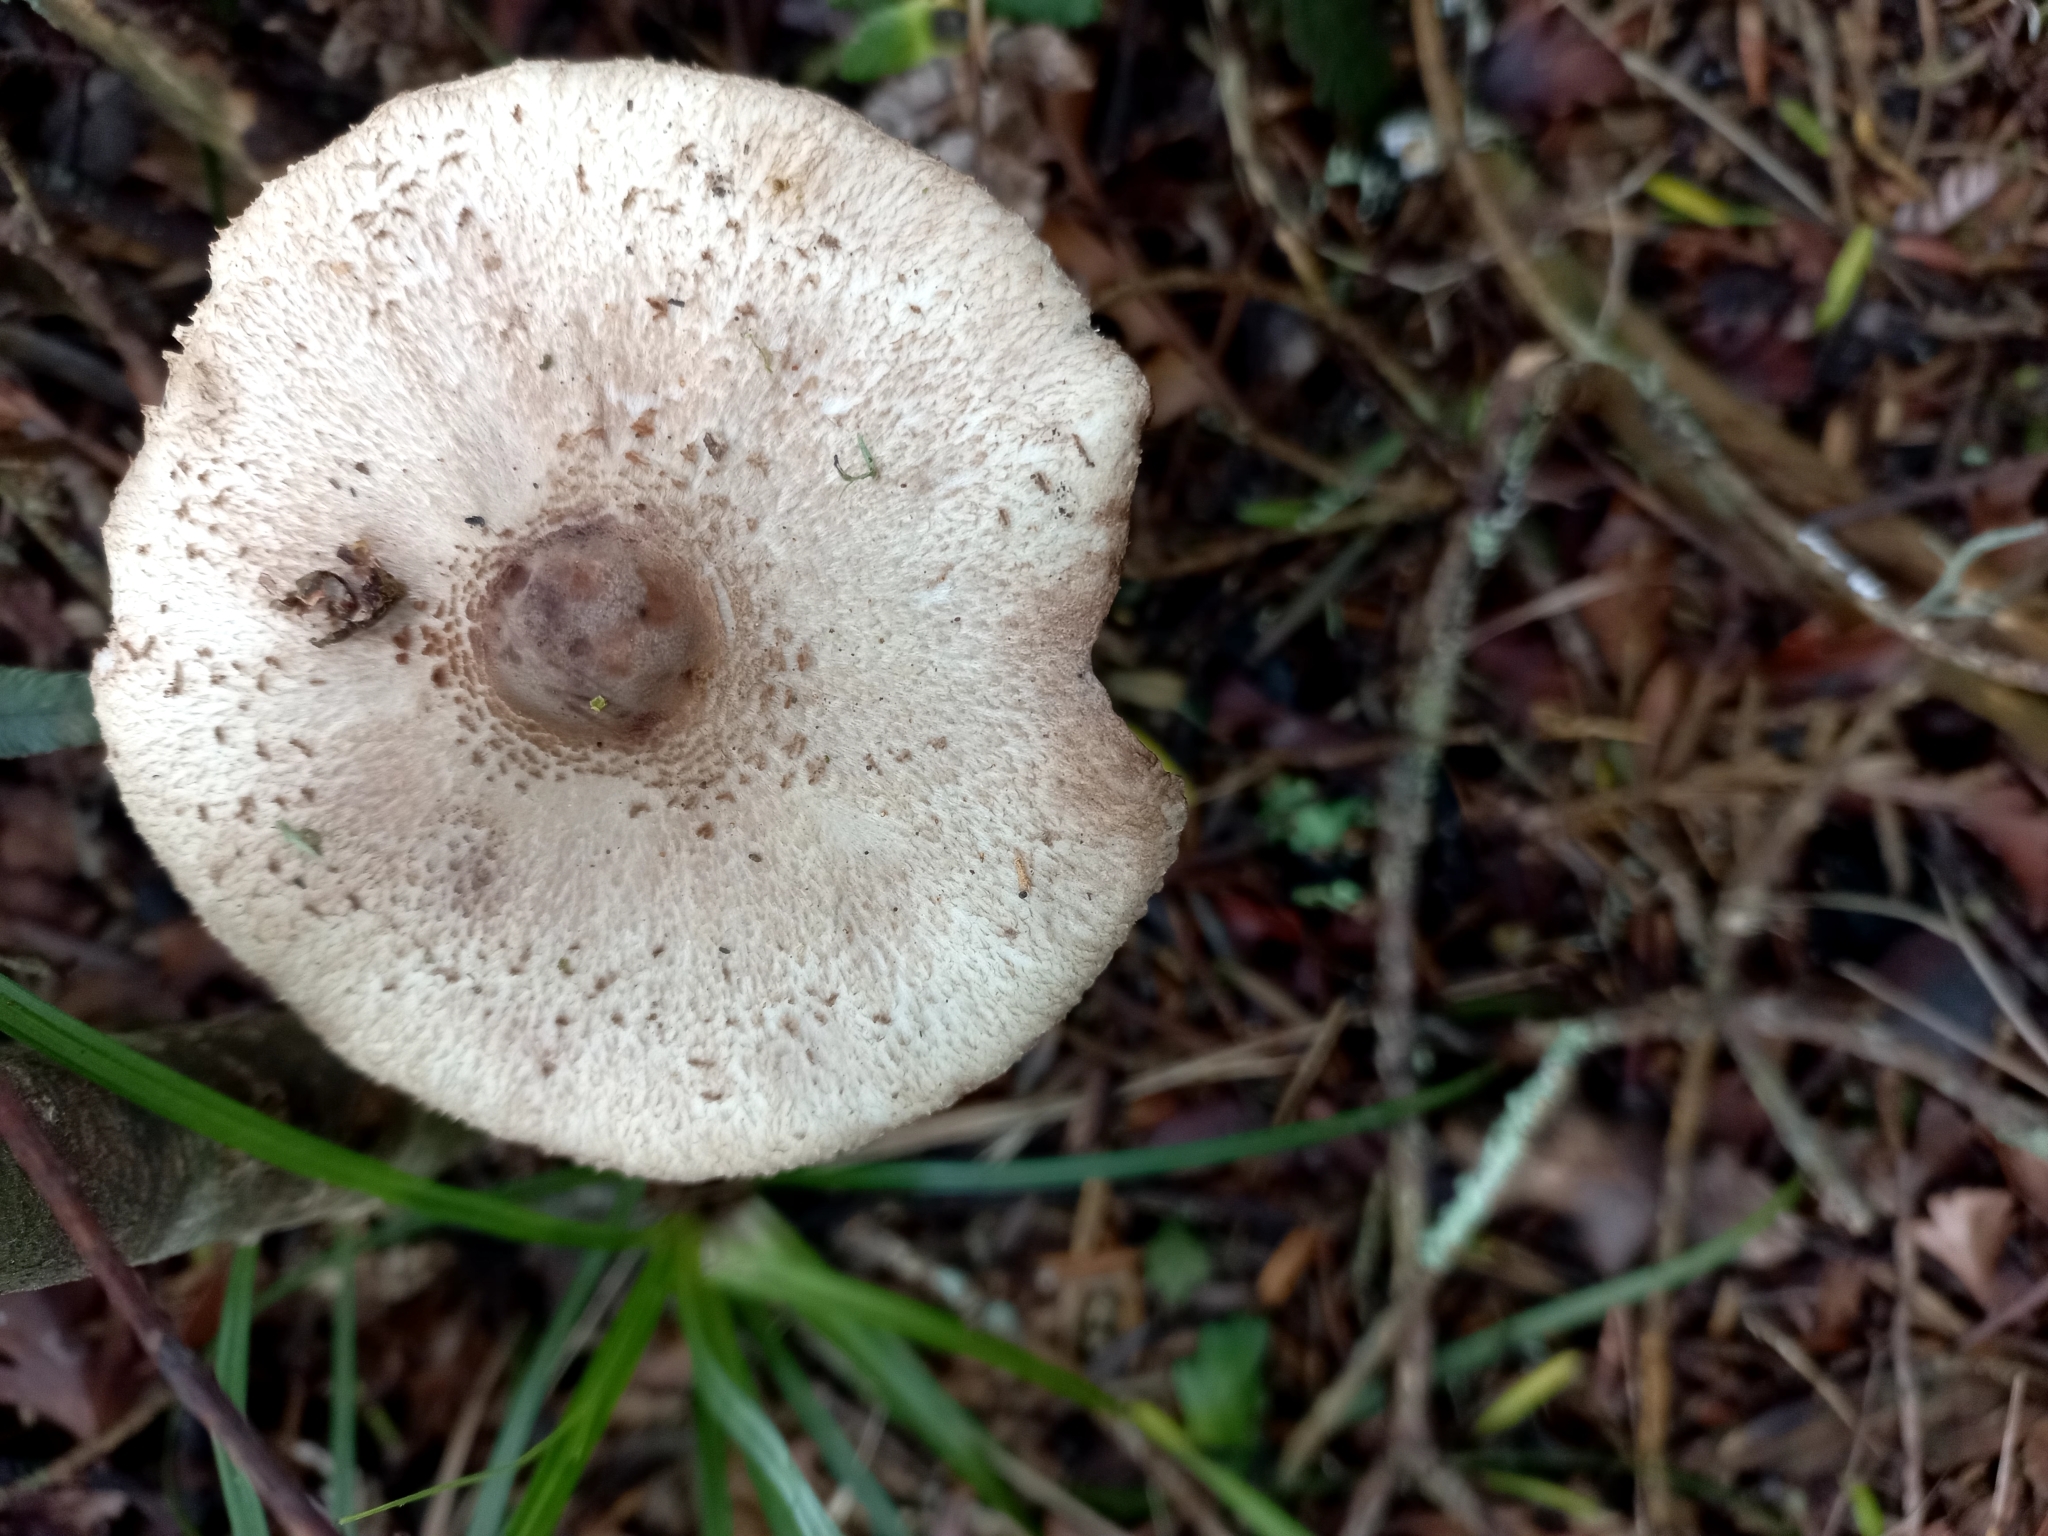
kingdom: Fungi
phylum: Basidiomycota
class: Agaricomycetes
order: Agaricales
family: Agaricaceae
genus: Macrolepiota
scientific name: Macrolepiota clelandii
